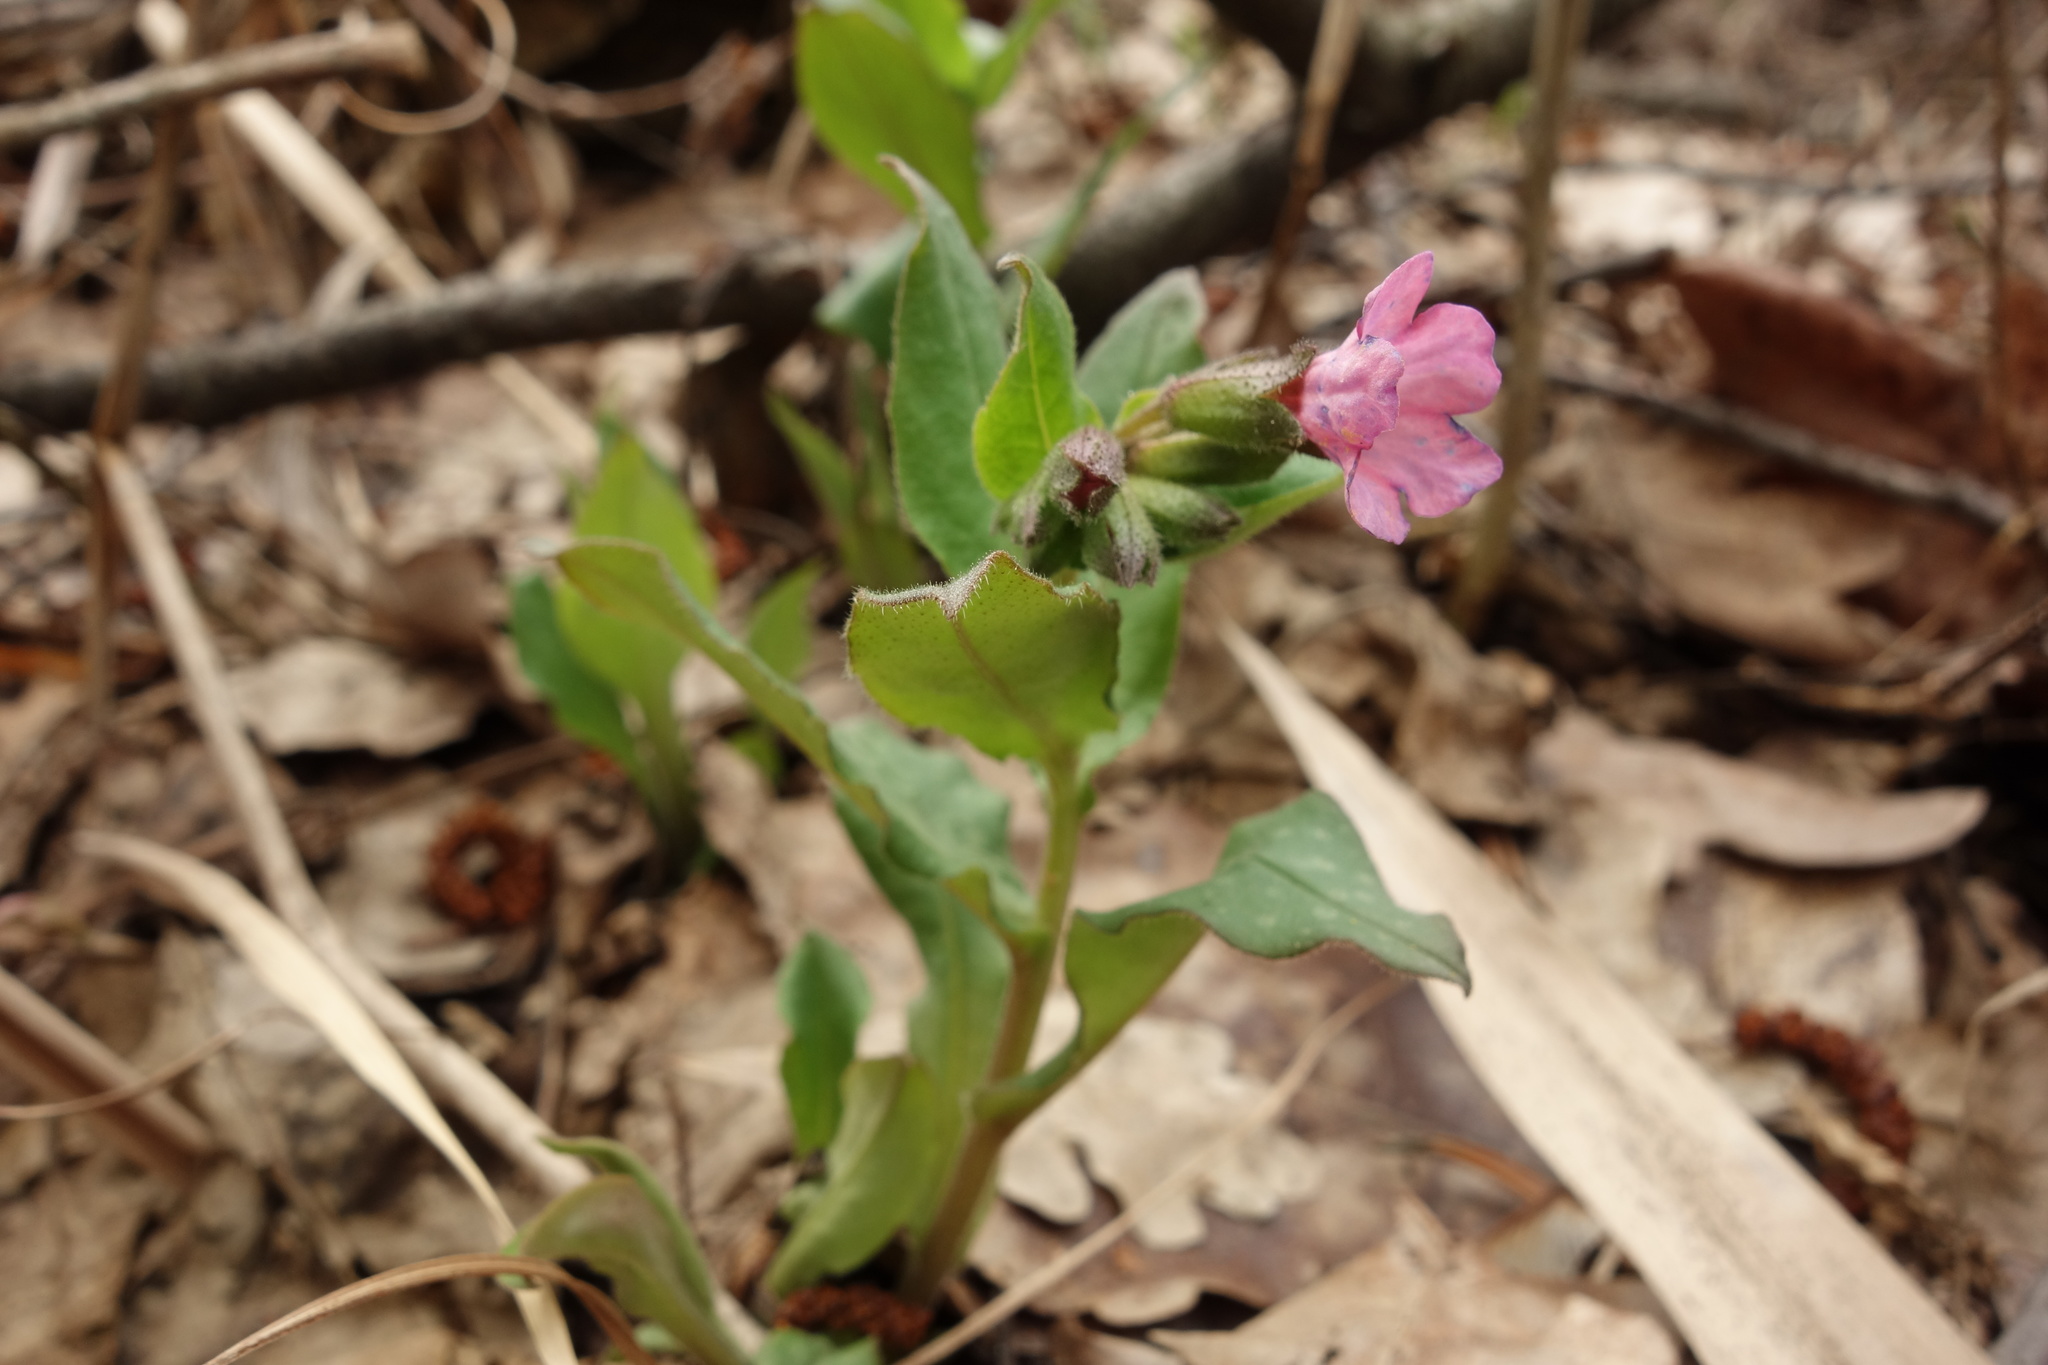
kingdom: Plantae
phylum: Tracheophyta
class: Magnoliopsida
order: Boraginales
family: Boraginaceae
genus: Pulmonaria
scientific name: Pulmonaria obscura
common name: Suffolk lungwort
